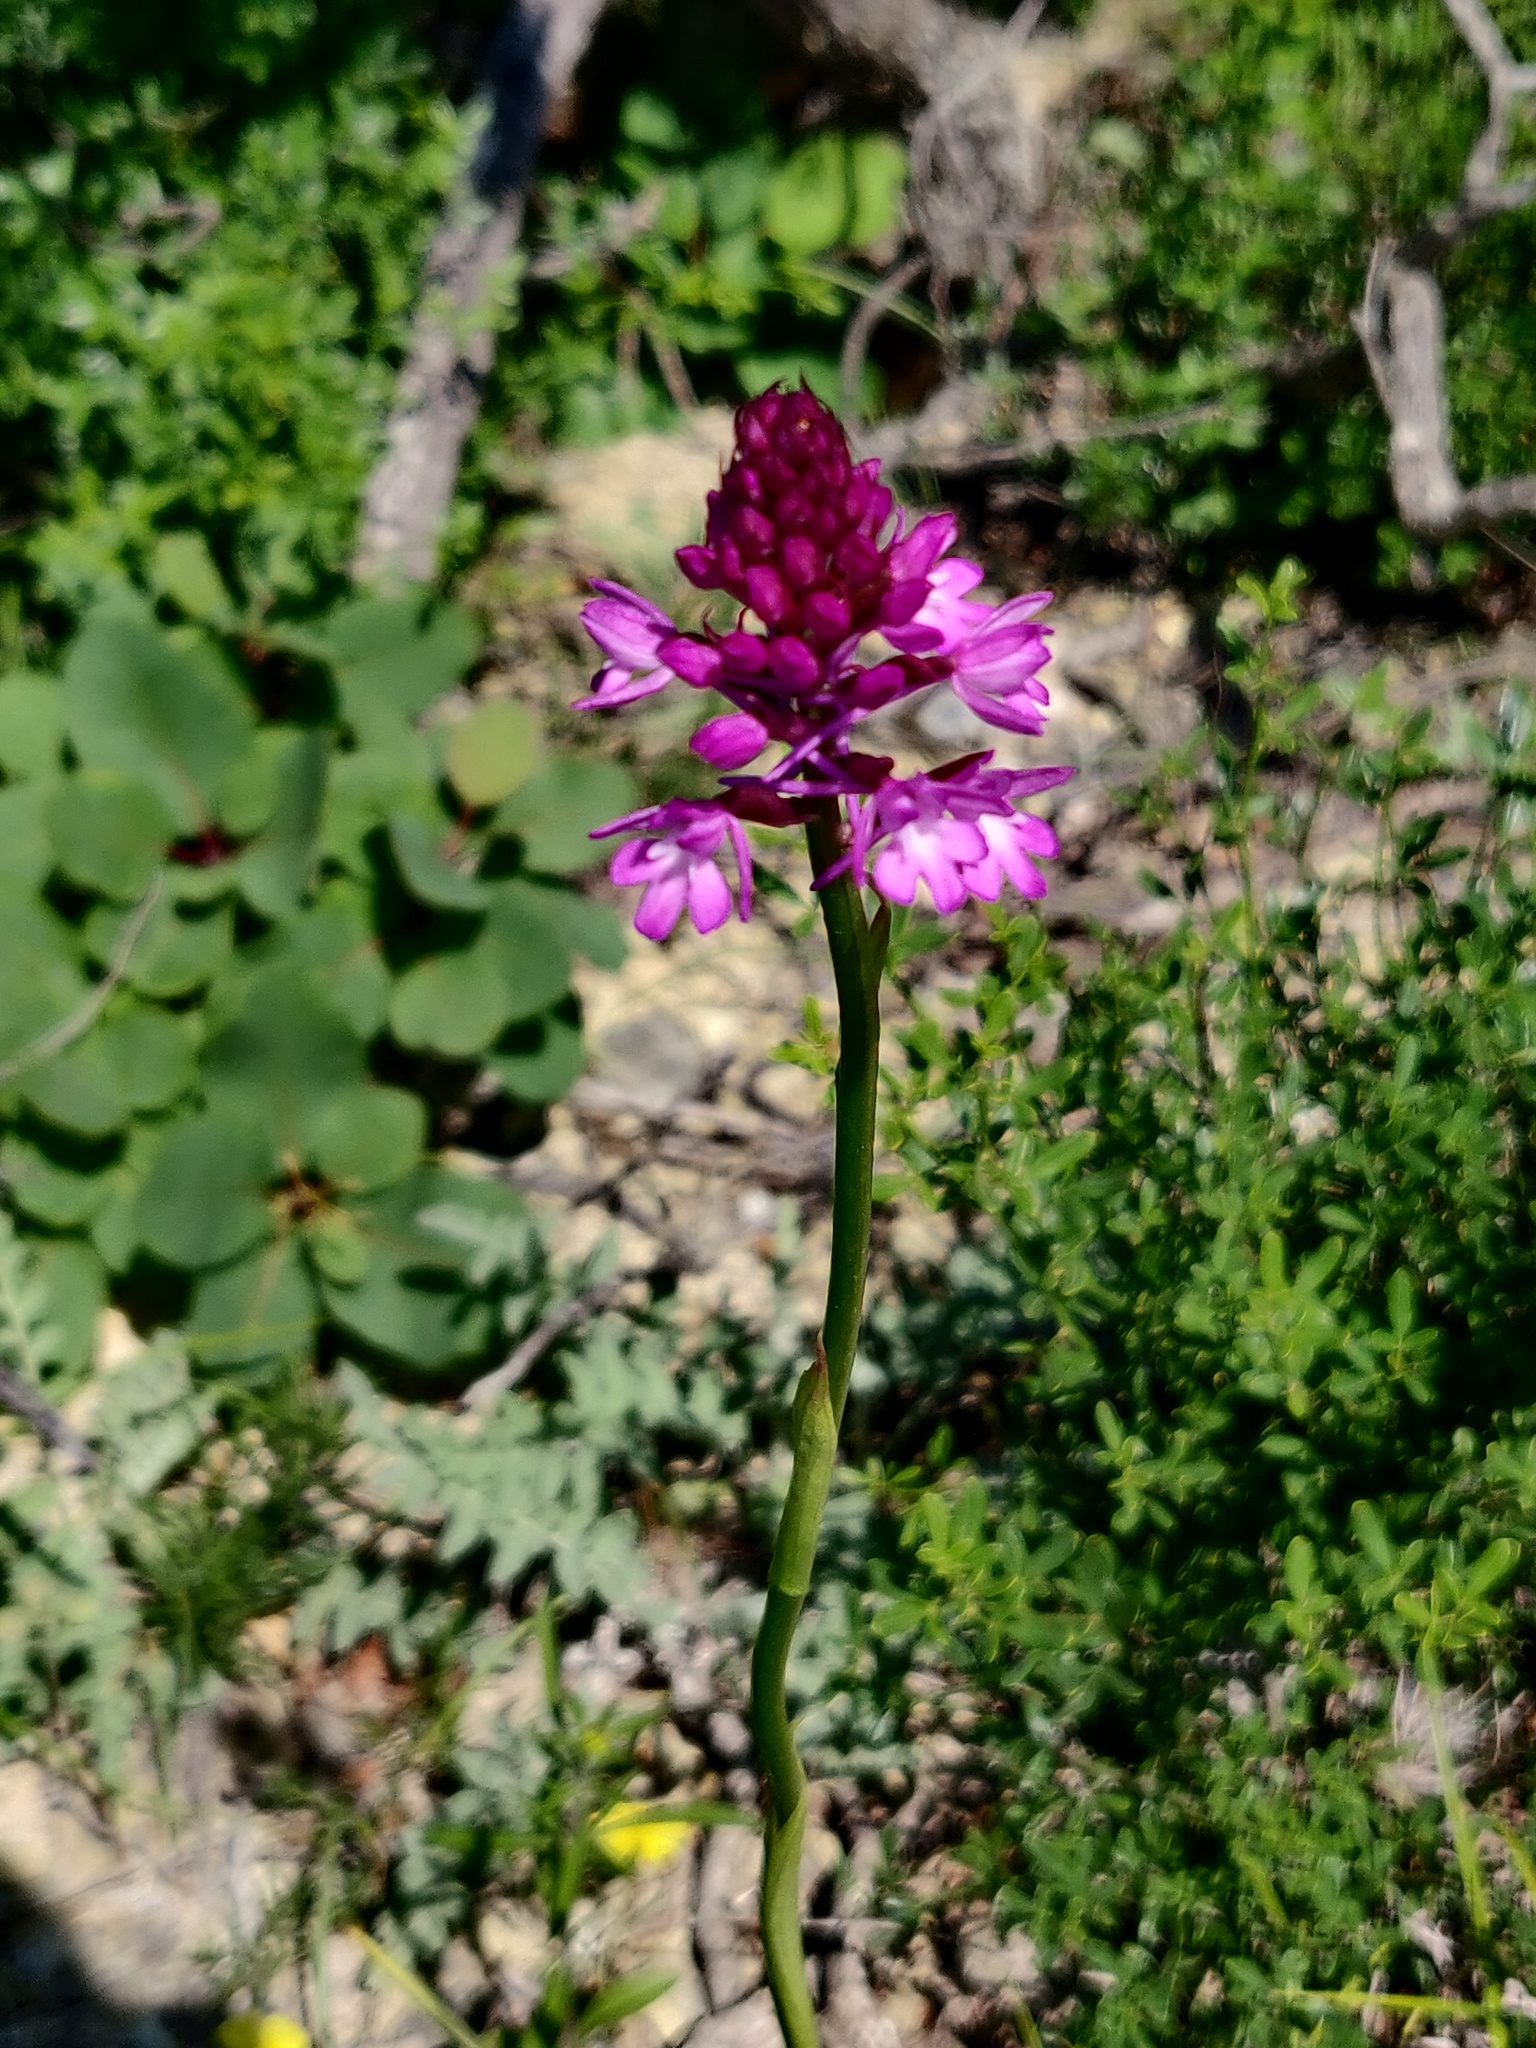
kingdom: Plantae
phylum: Tracheophyta
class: Liliopsida
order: Asparagales
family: Orchidaceae
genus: Anacamptis
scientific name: Anacamptis pyramidalis
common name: Pyramidal orchid
